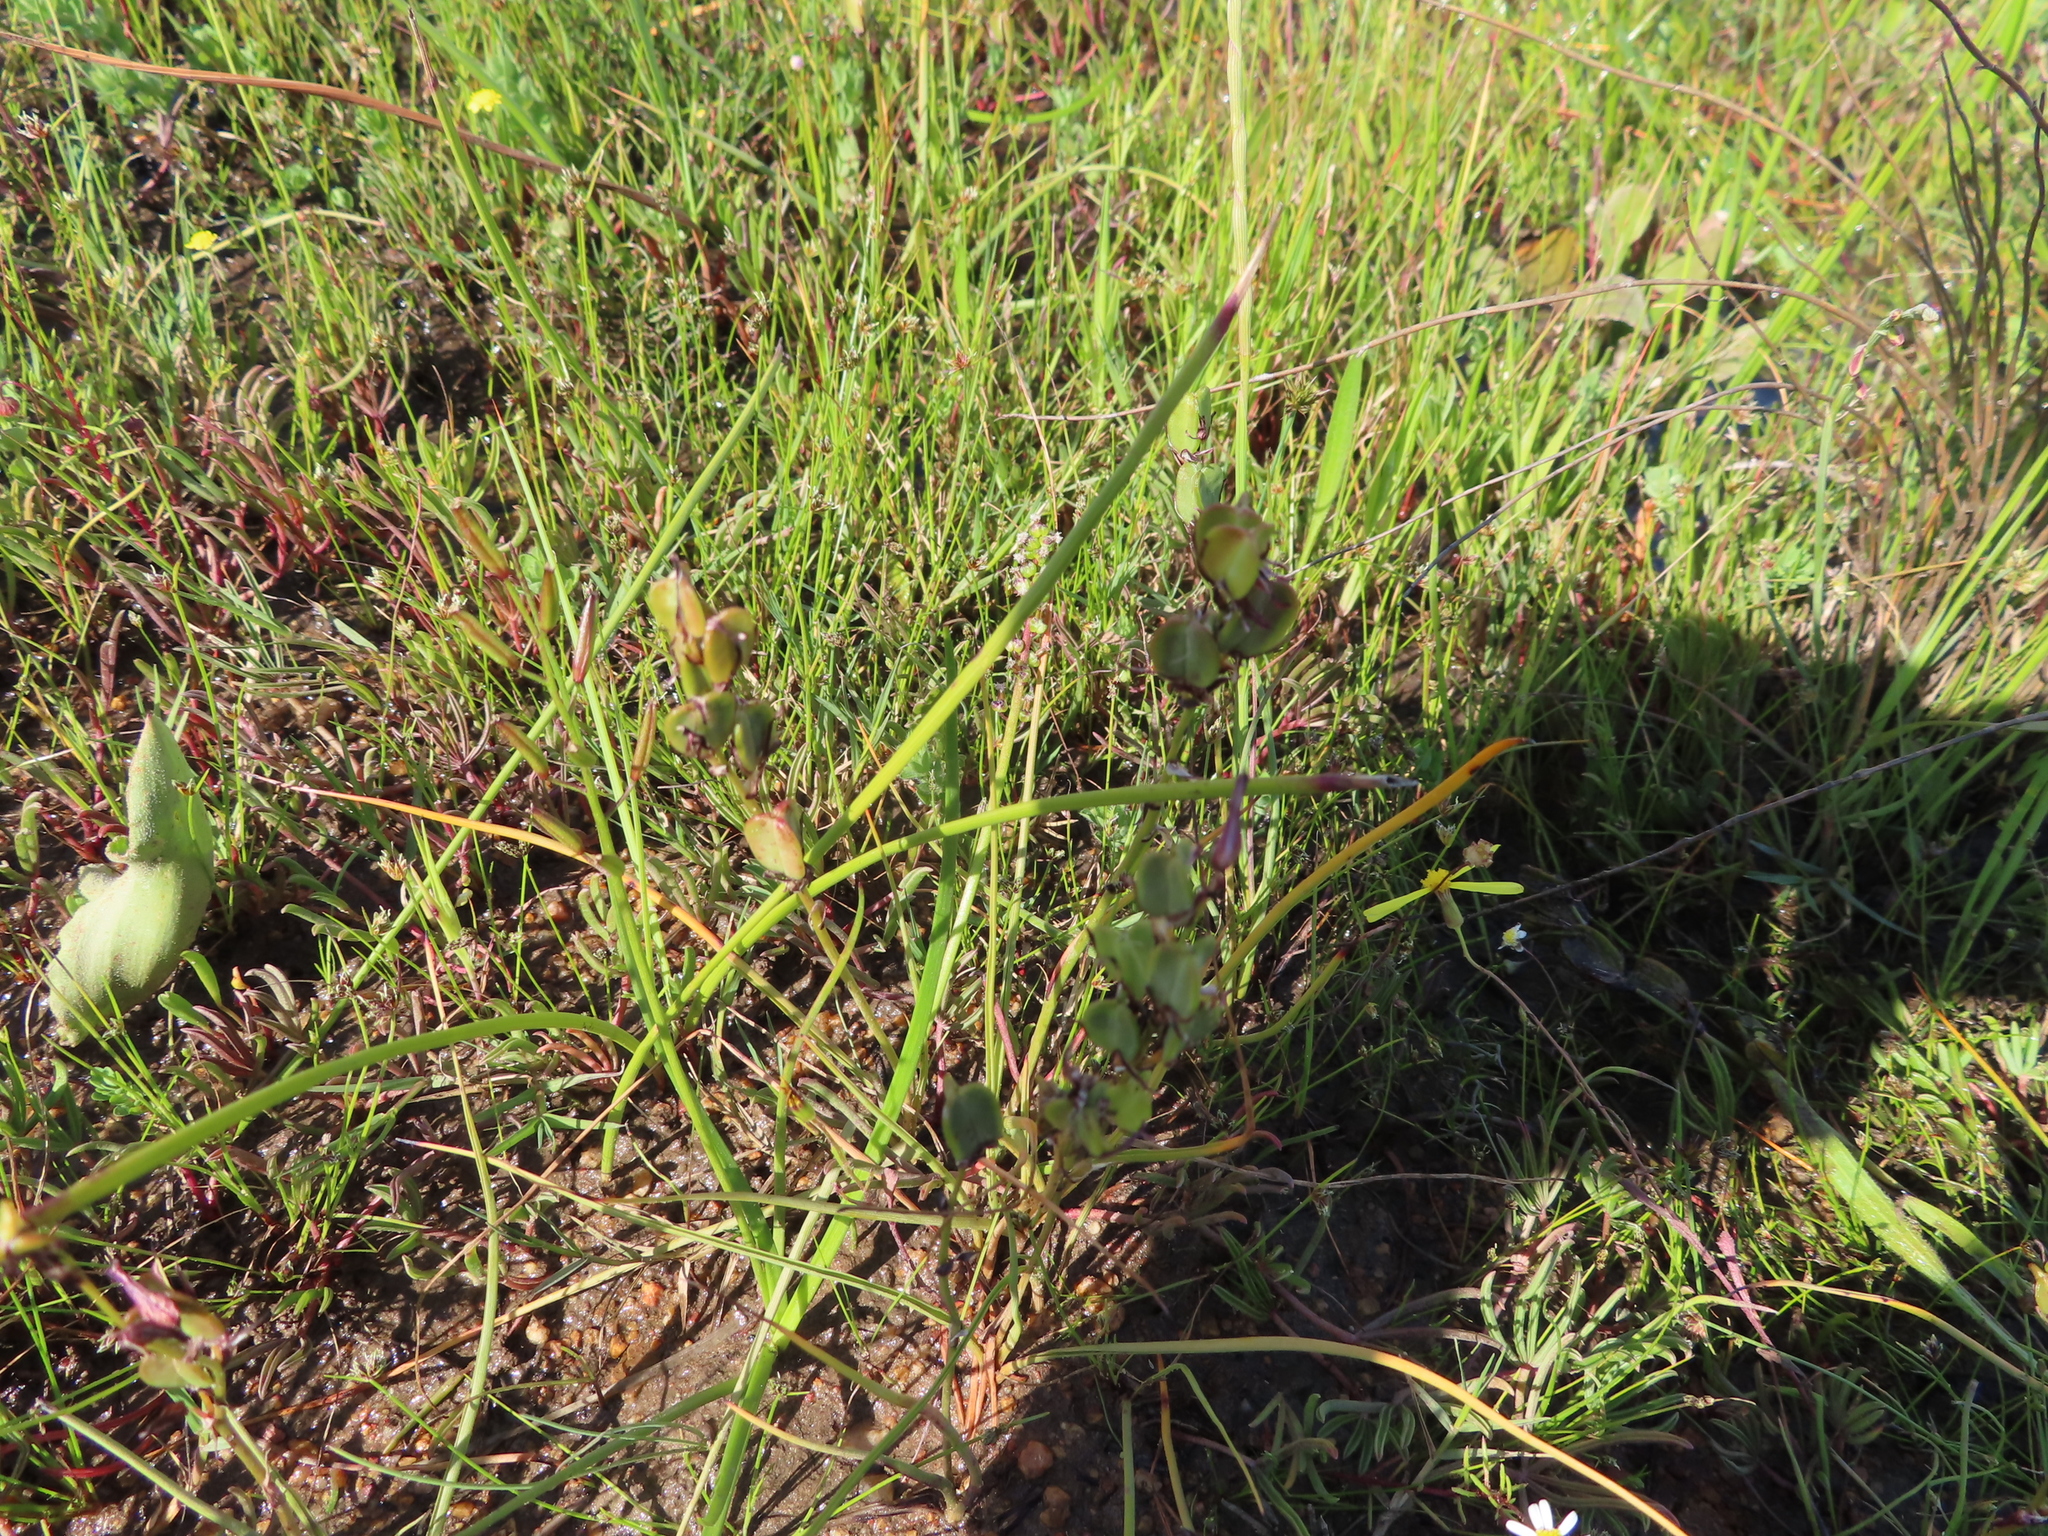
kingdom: Plantae
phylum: Tracheophyta
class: Liliopsida
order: Alismatales
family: Juncaginaceae
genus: Triglochin
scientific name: Triglochin bulbosa
